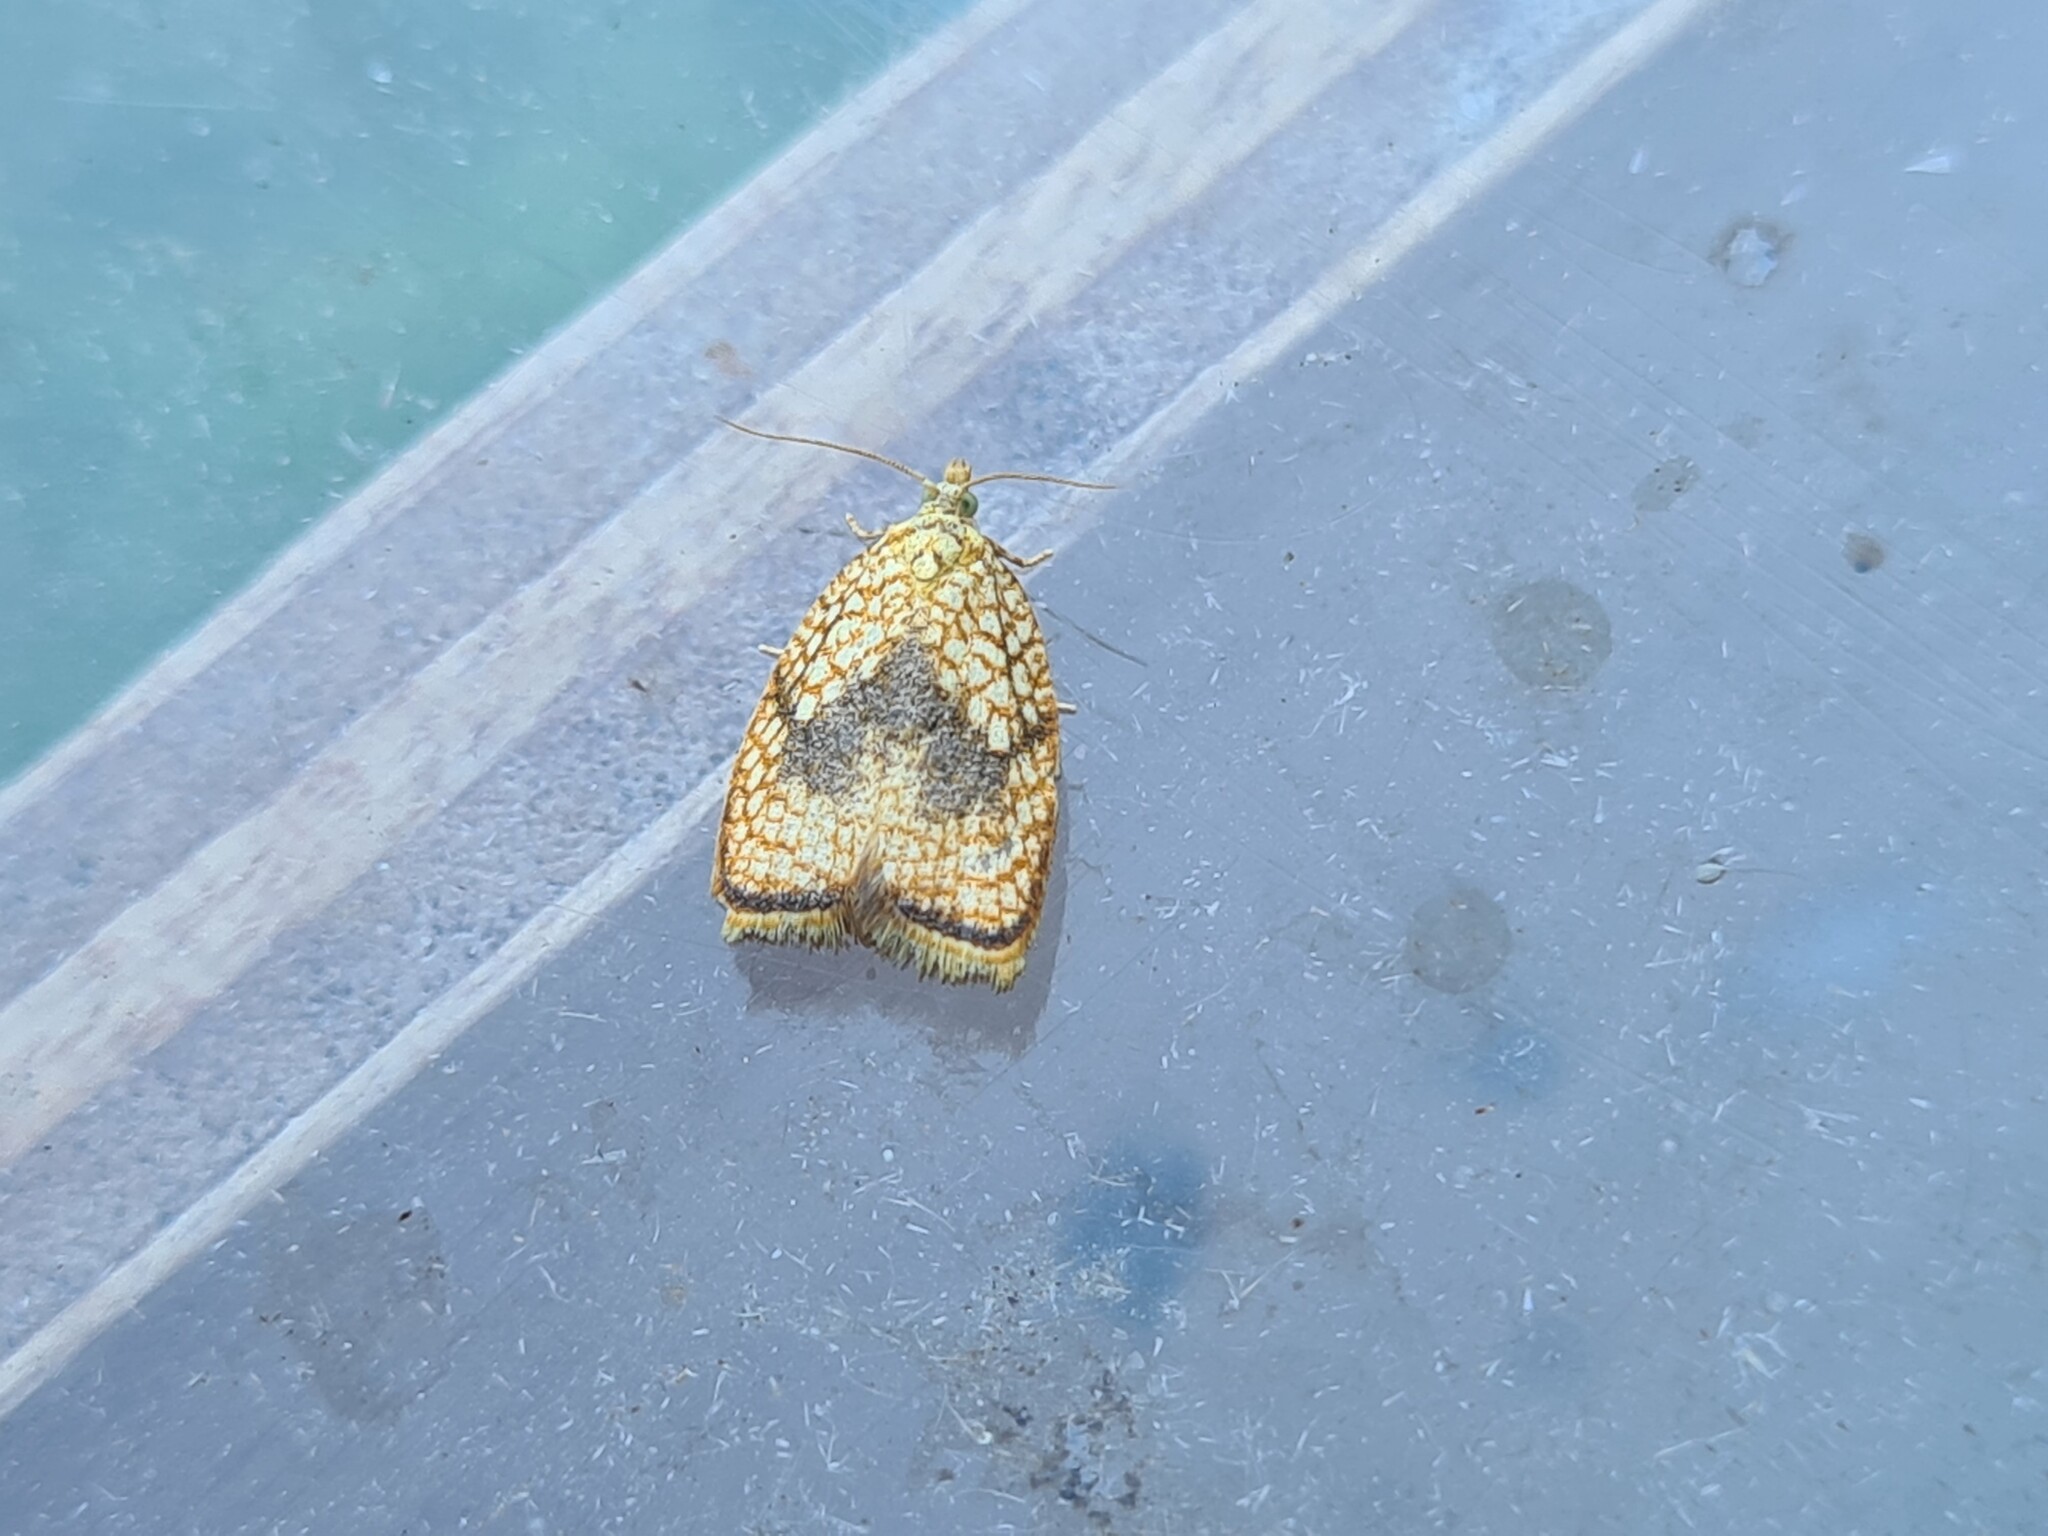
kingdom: Animalia
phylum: Arthropoda
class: Insecta
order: Lepidoptera
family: Tortricidae
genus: Acleris
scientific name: Acleris forsskaleana
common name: Maple button
